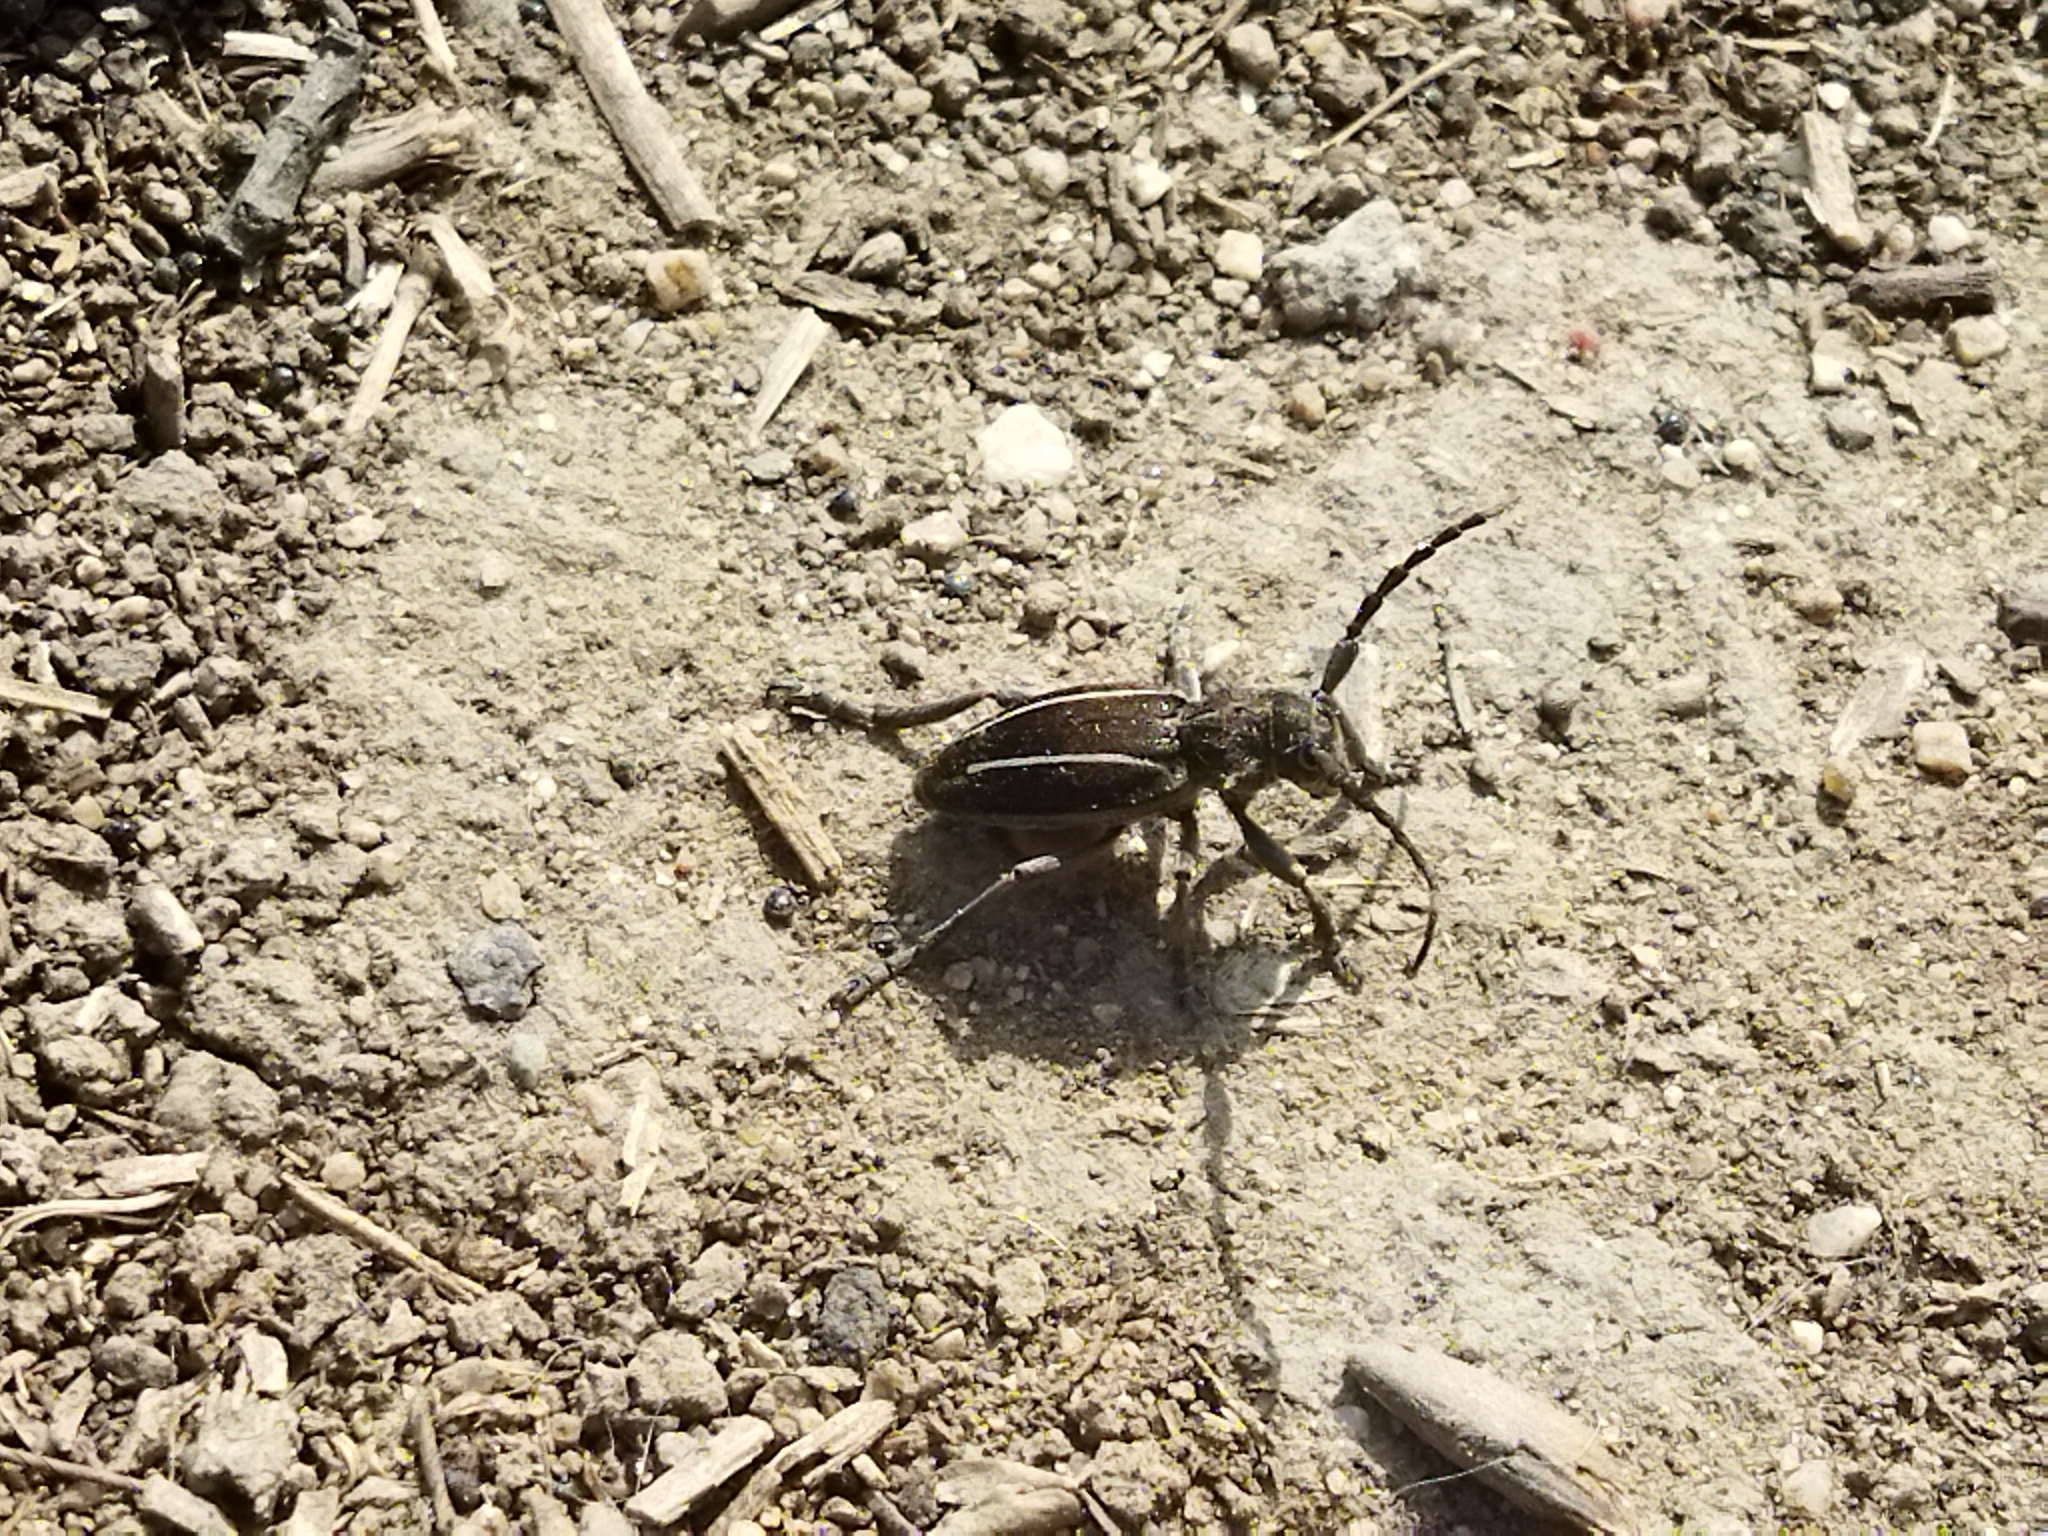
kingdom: Animalia
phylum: Arthropoda
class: Insecta
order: Coleoptera
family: Cerambycidae
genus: Neodorcadion
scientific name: Neodorcadion bilineatum
